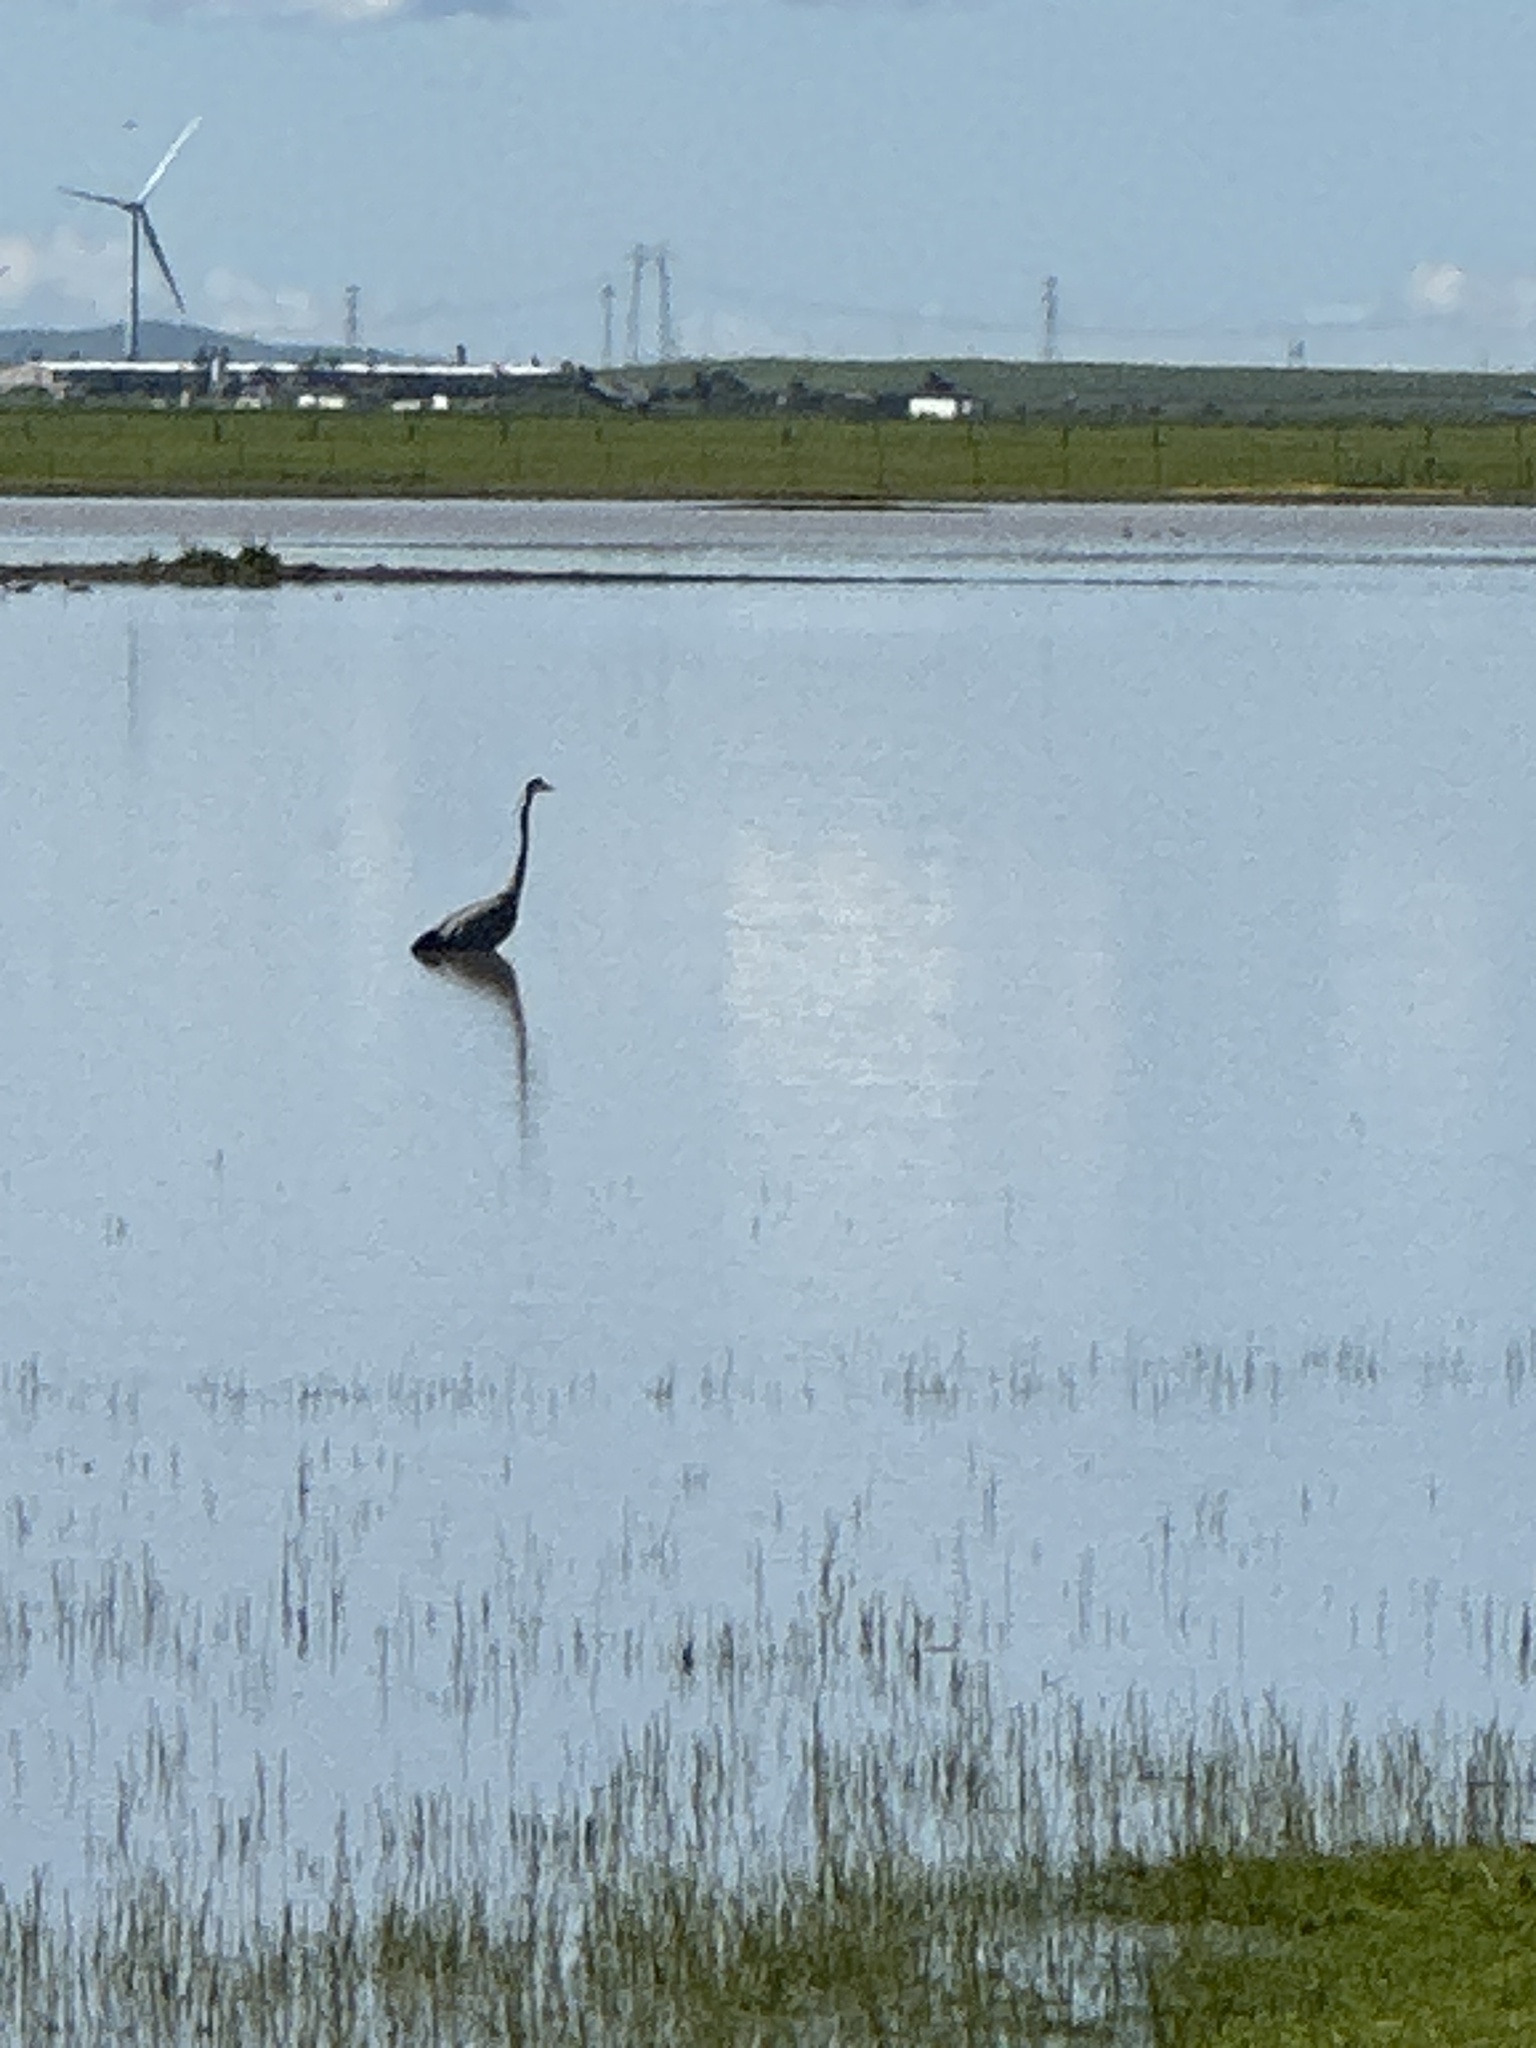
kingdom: Animalia
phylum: Chordata
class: Aves
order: Pelecaniformes
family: Ardeidae
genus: Ardea
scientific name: Ardea herodias
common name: Great blue heron
